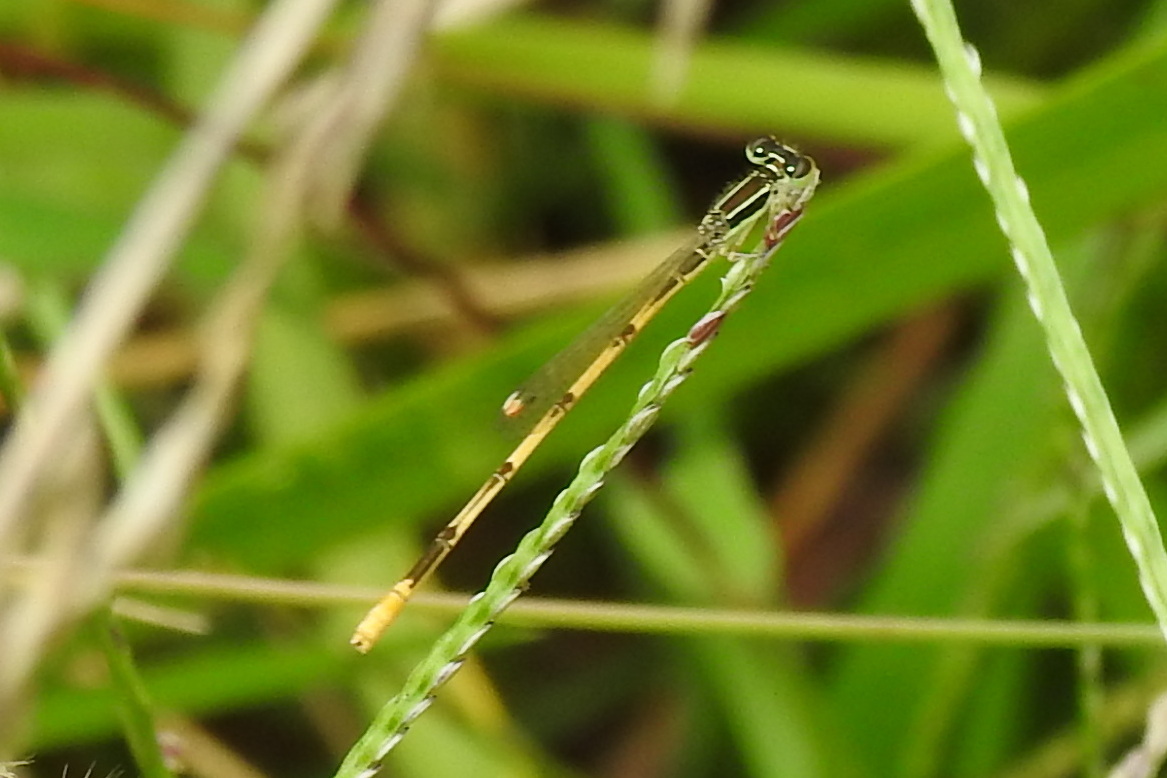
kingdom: Animalia
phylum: Arthropoda
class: Insecta
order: Odonata
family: Coenagrionidae
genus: Ischnura
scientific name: Ischnura hastata
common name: Citrine forktail
